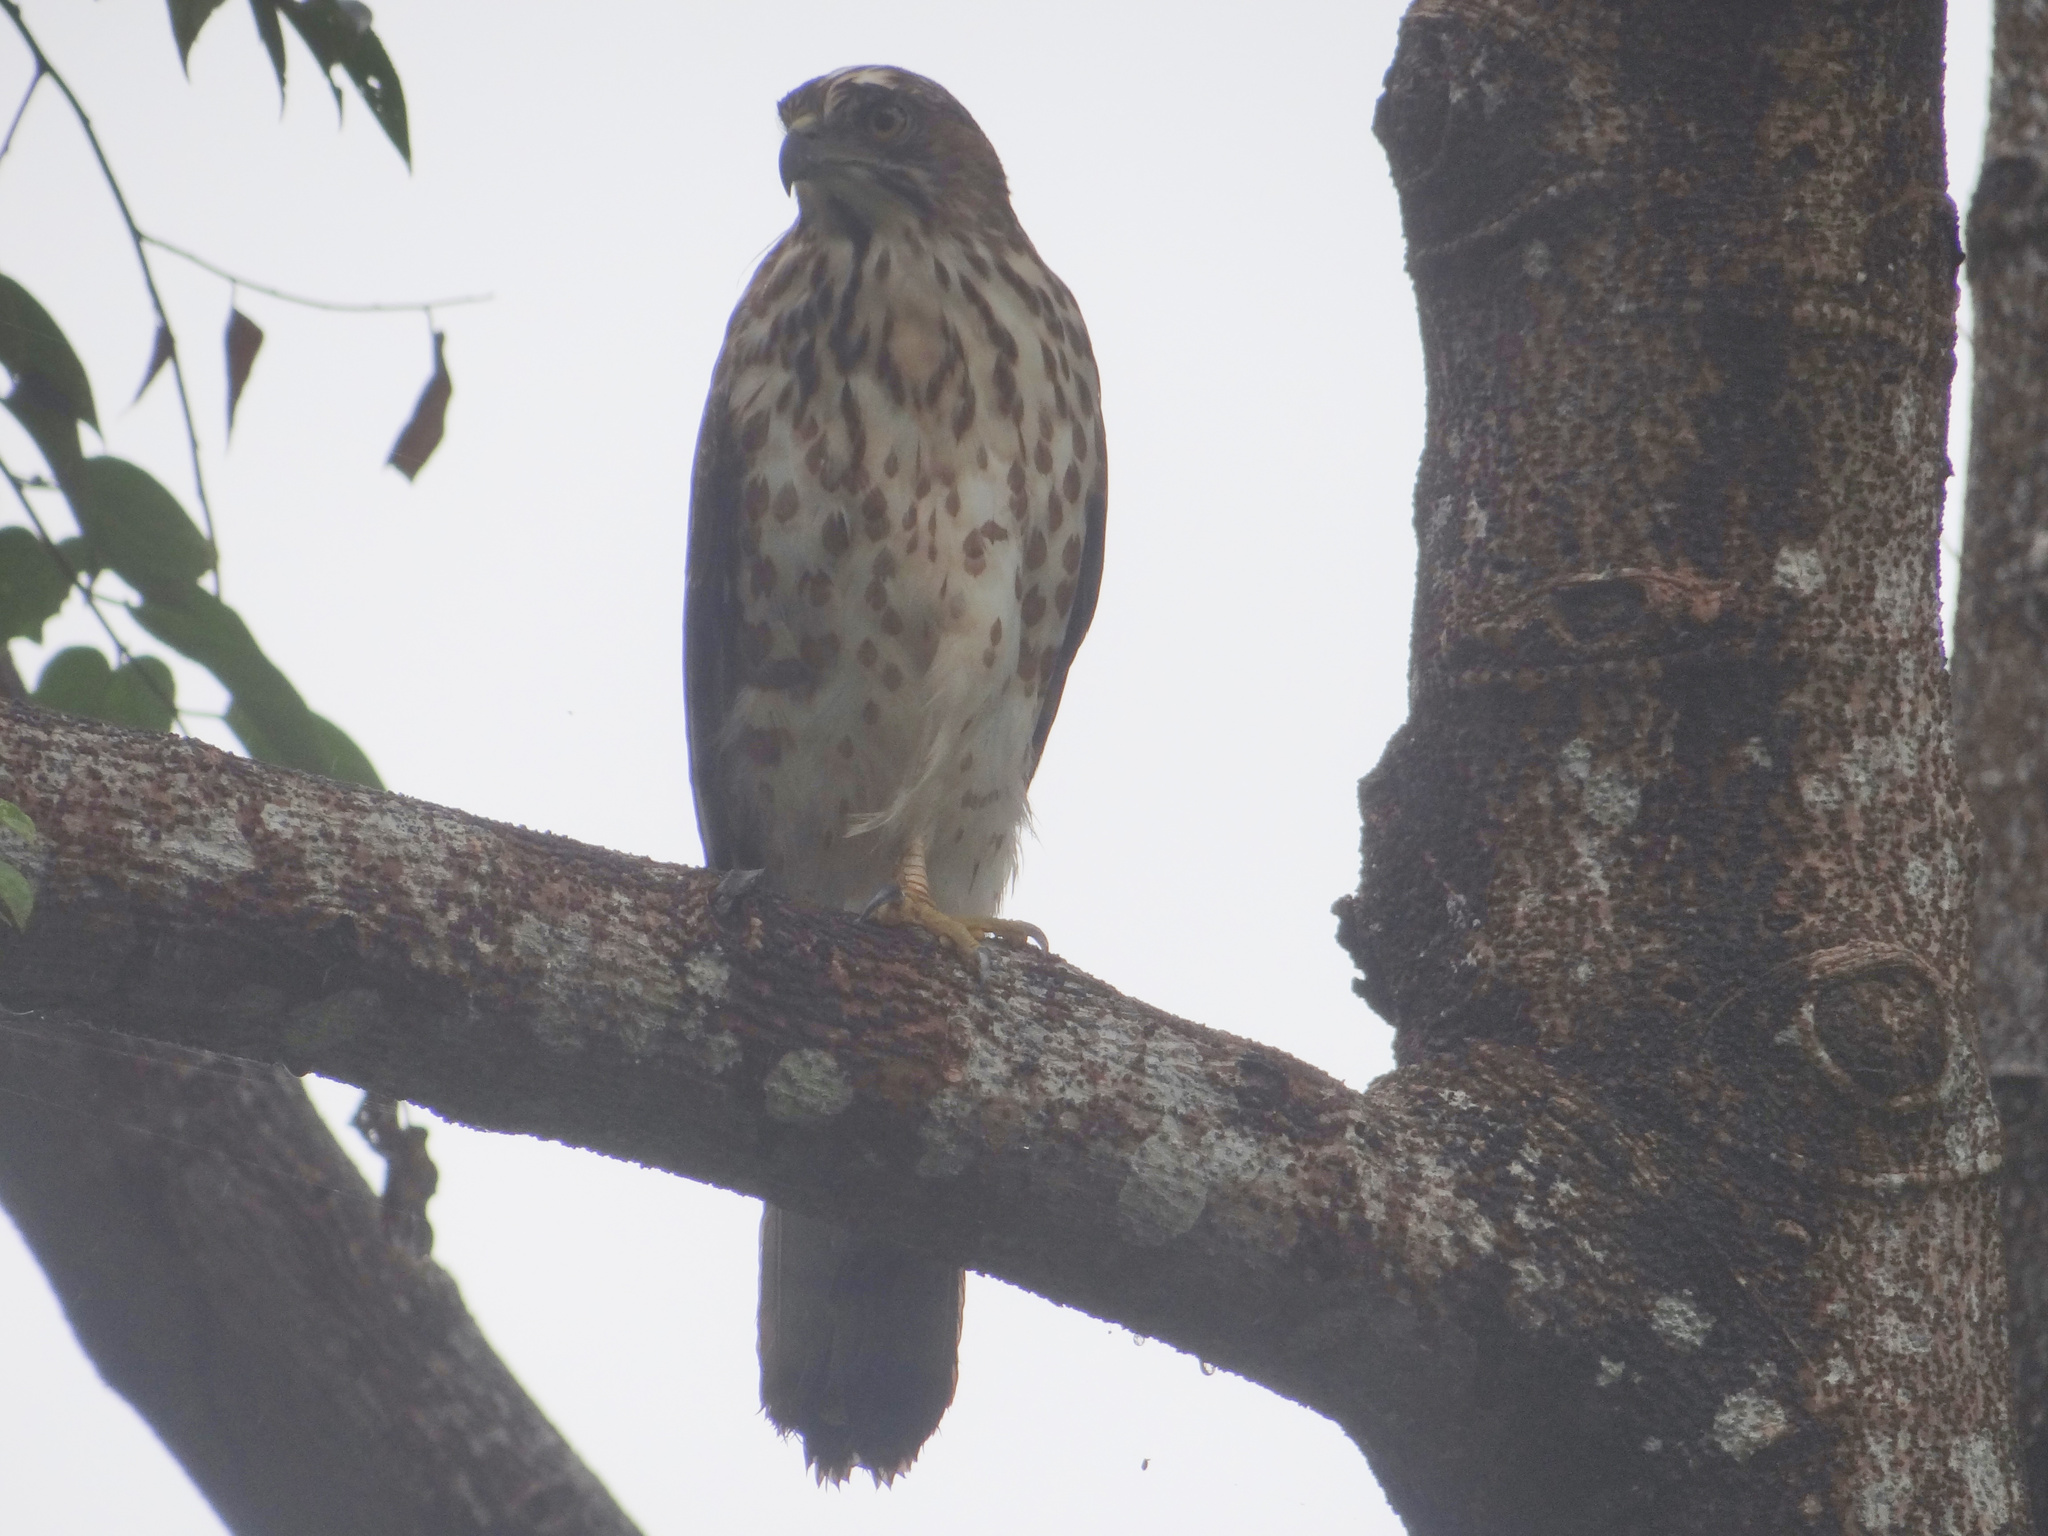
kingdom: Animalia
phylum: Chordata
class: Aves
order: Accipitriformes
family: Accipitridae
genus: Accipiter
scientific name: Accipiter trivirgatus
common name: Crested goshawk
